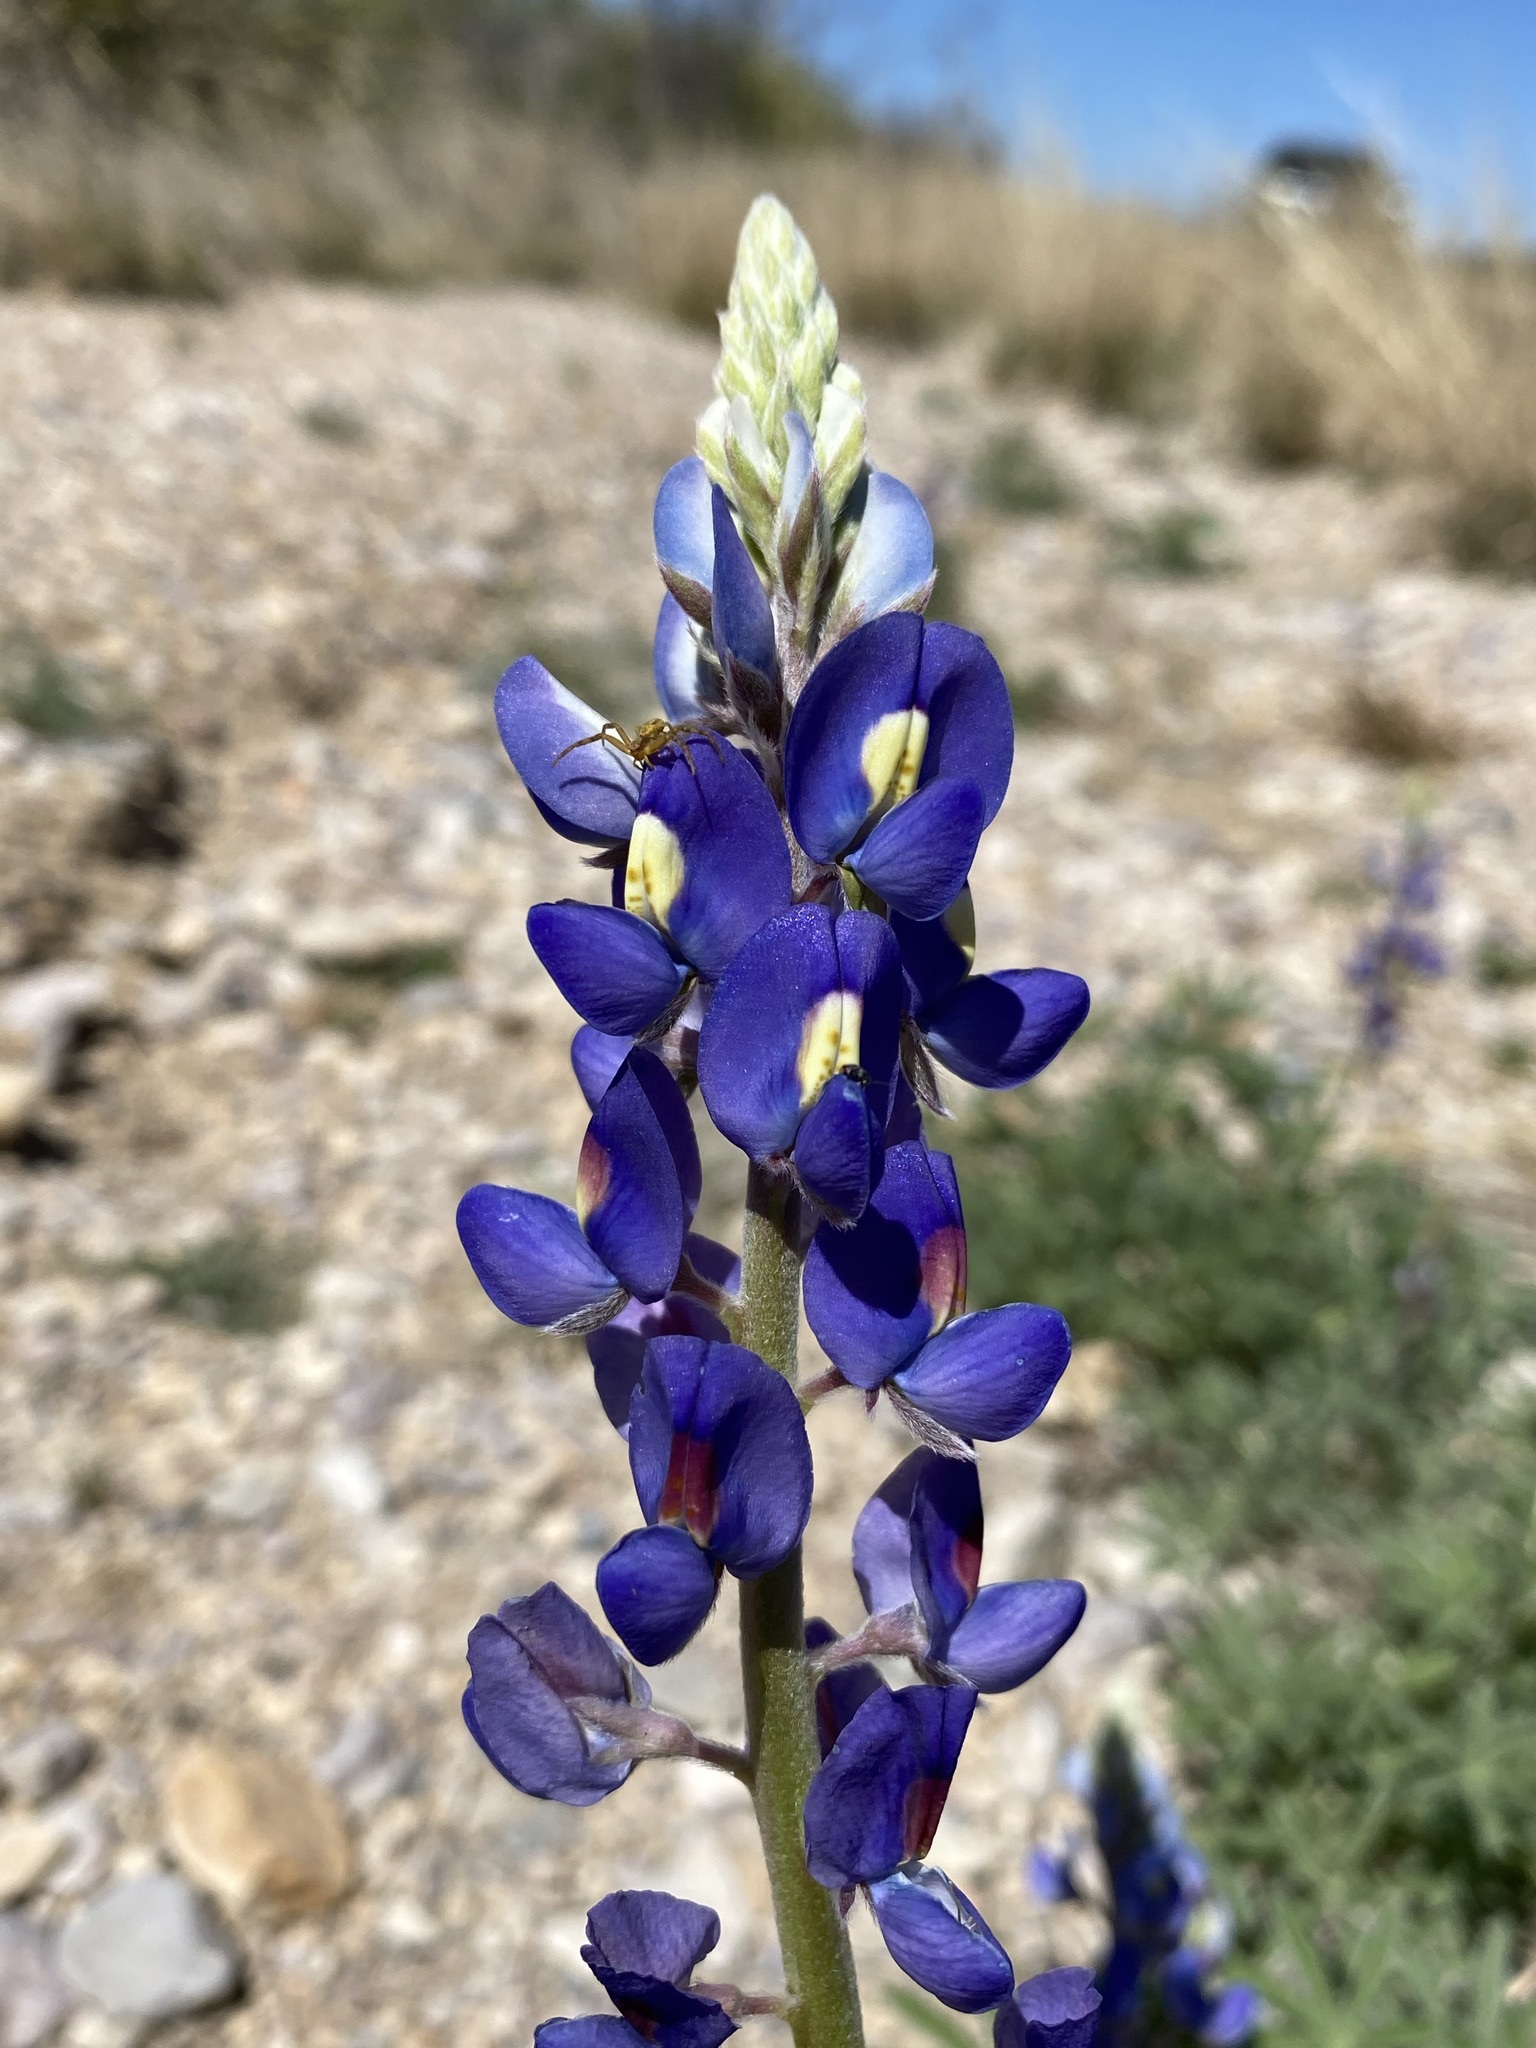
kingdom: Plantae
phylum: Tracheophyta
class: Magnoliopsida
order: Fabales
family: Fabaceae
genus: Lupinus
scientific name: Lupinus havardii
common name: Chisos bluebonnet
